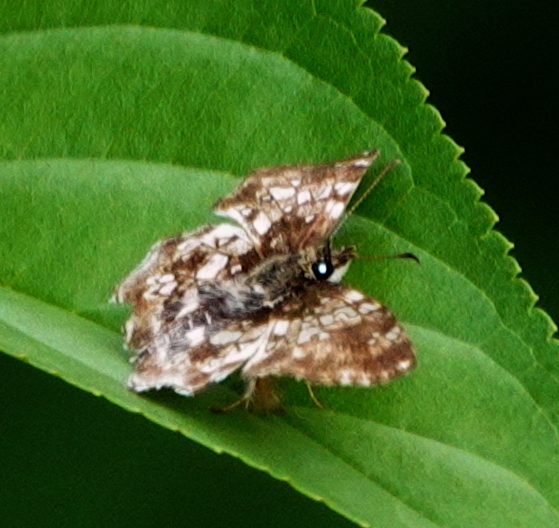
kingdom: Animalia
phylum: Arthropoda
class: Insecta
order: Lepidoptera
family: Hesperiidae
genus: Diaeus
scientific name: Diaeus variegatus
